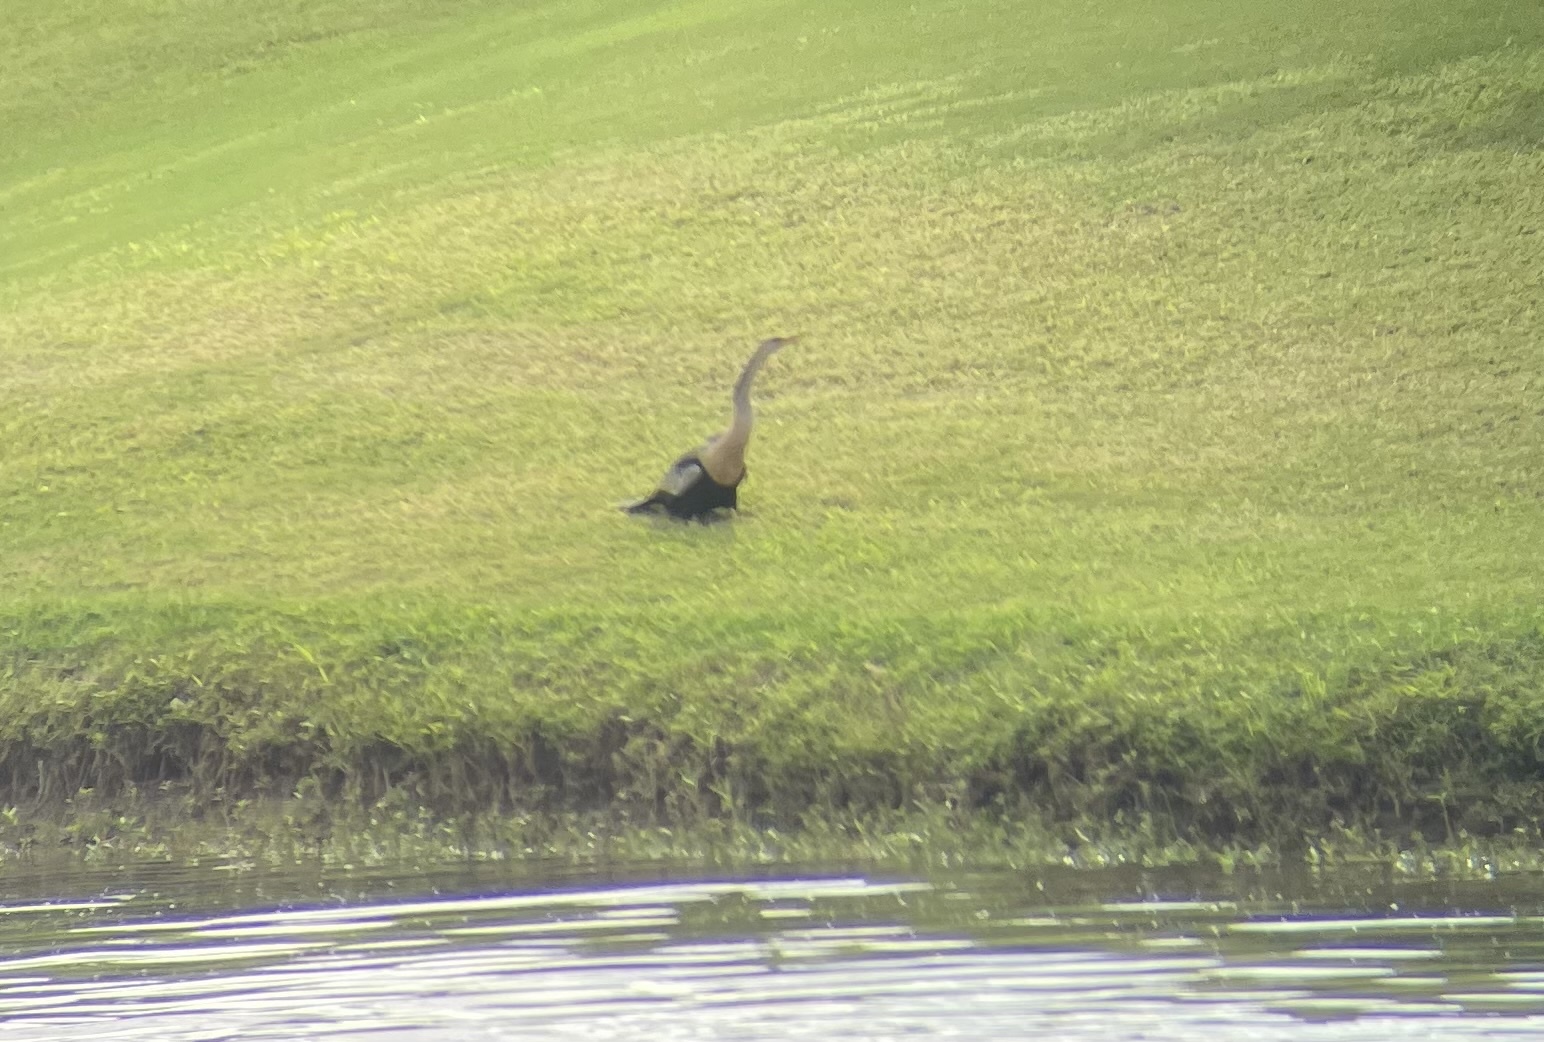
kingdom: Animalia
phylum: Chordata
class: Aves
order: Suliformes
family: Anhingidae
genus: Anhinga
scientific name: Anhinga anhinga
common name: Anhinga
